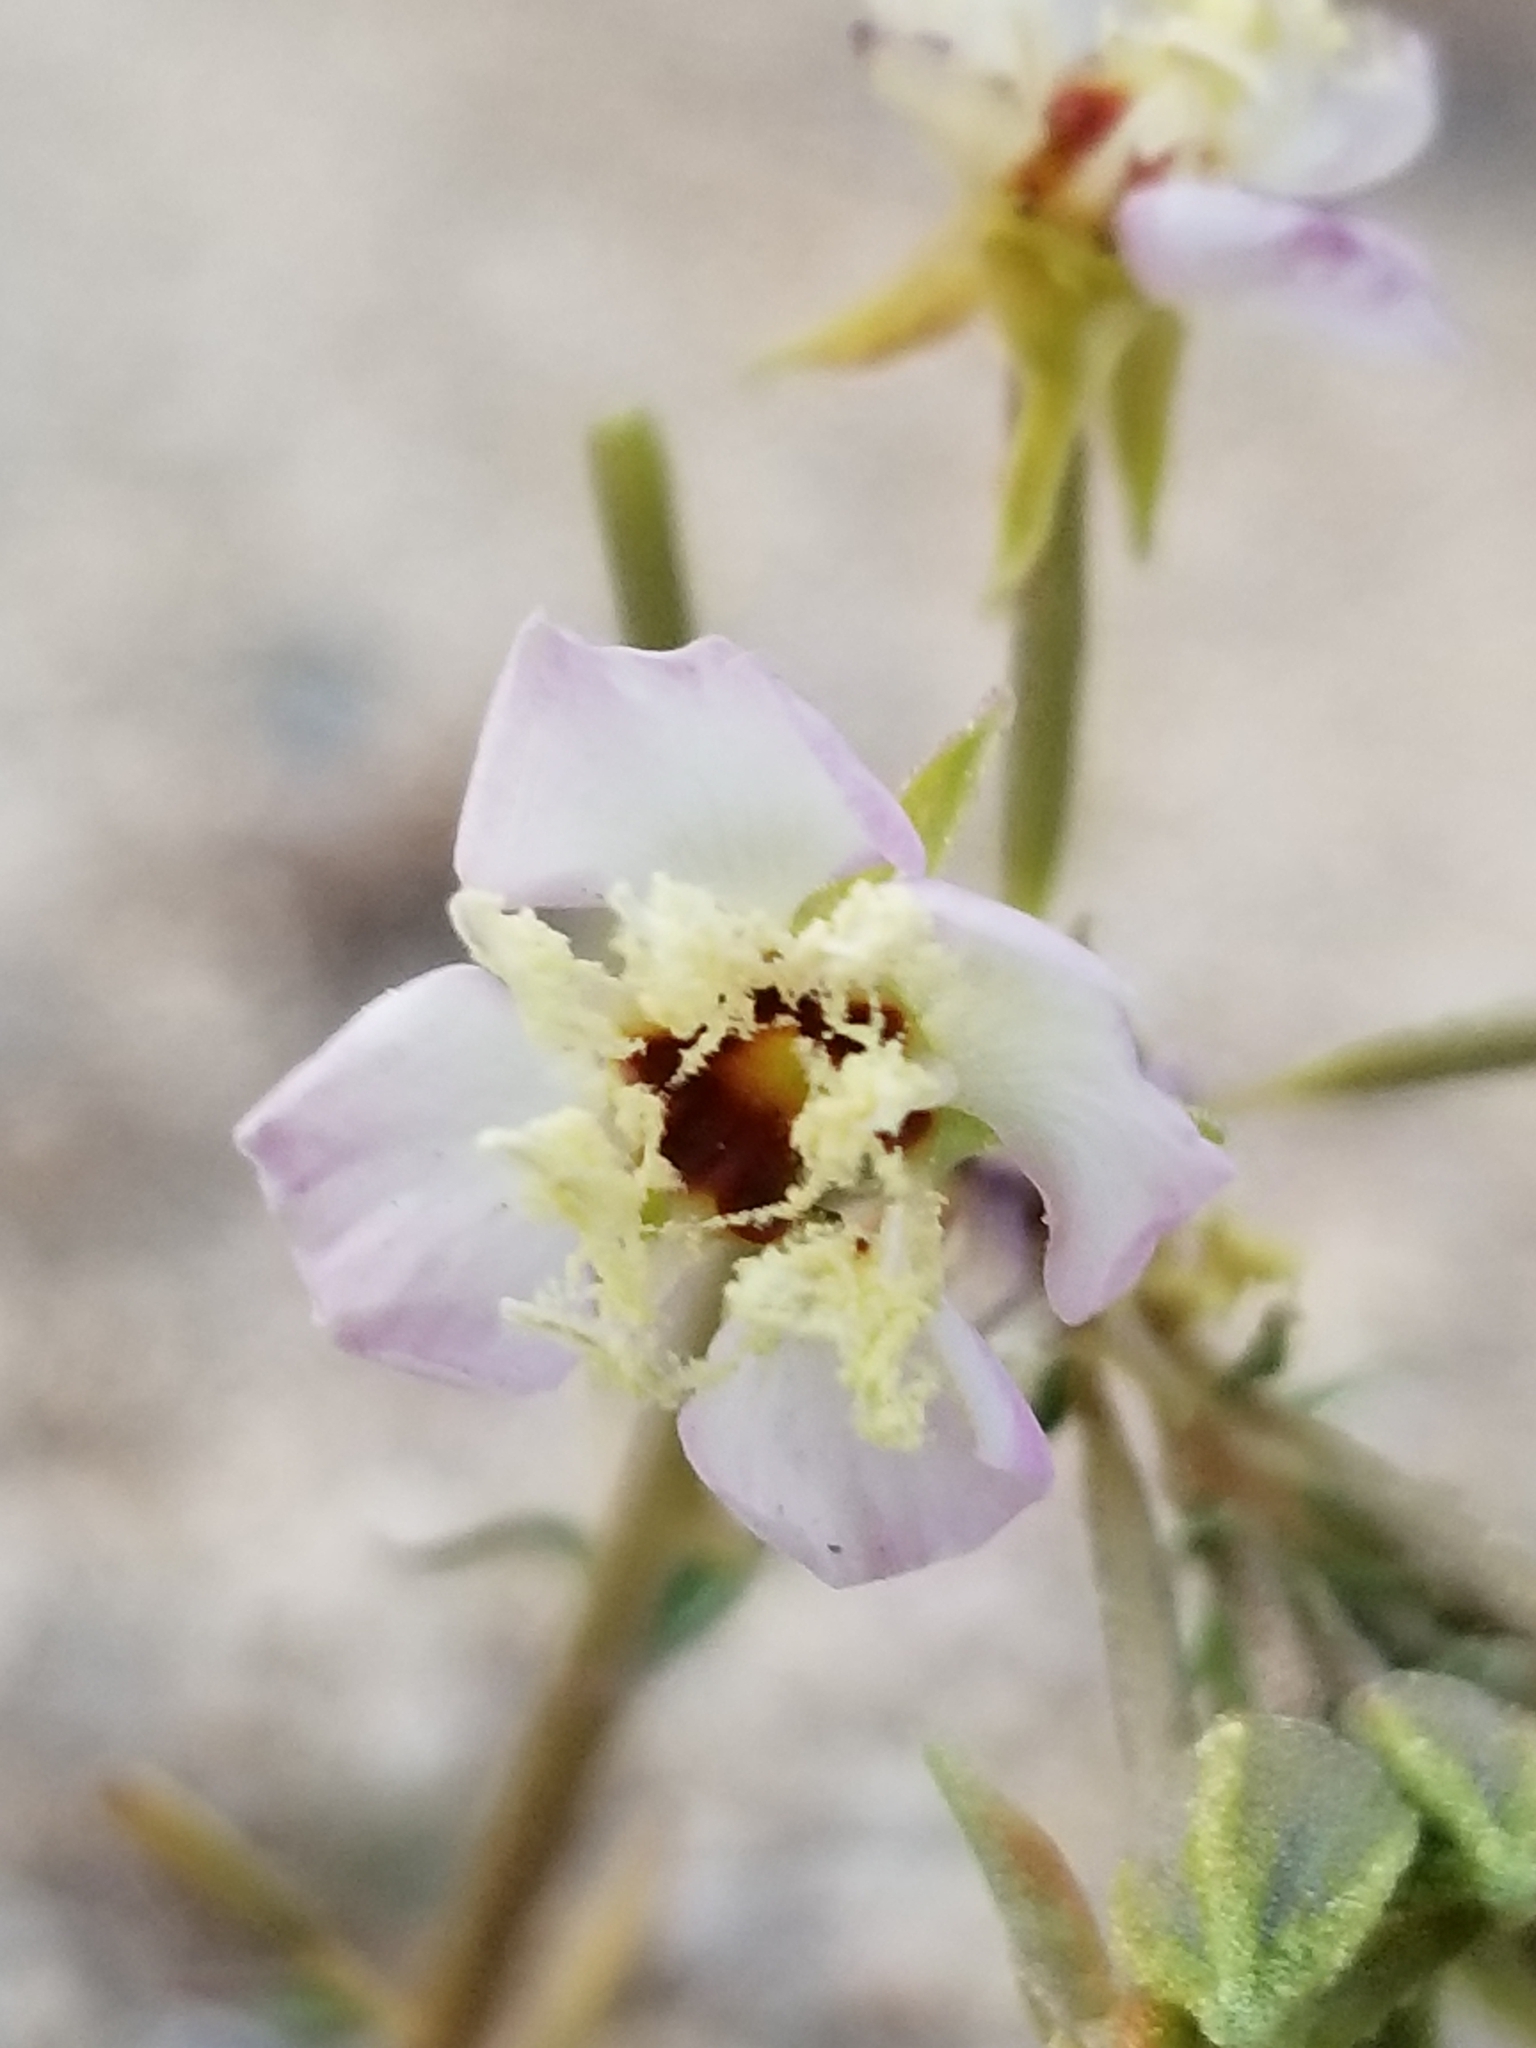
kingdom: Plantae
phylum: Tracheophyta
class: Magnoliopsida
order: Myrtales
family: Onagraceae
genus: Chylismia
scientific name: Chylismia claviformis
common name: Browneyes
